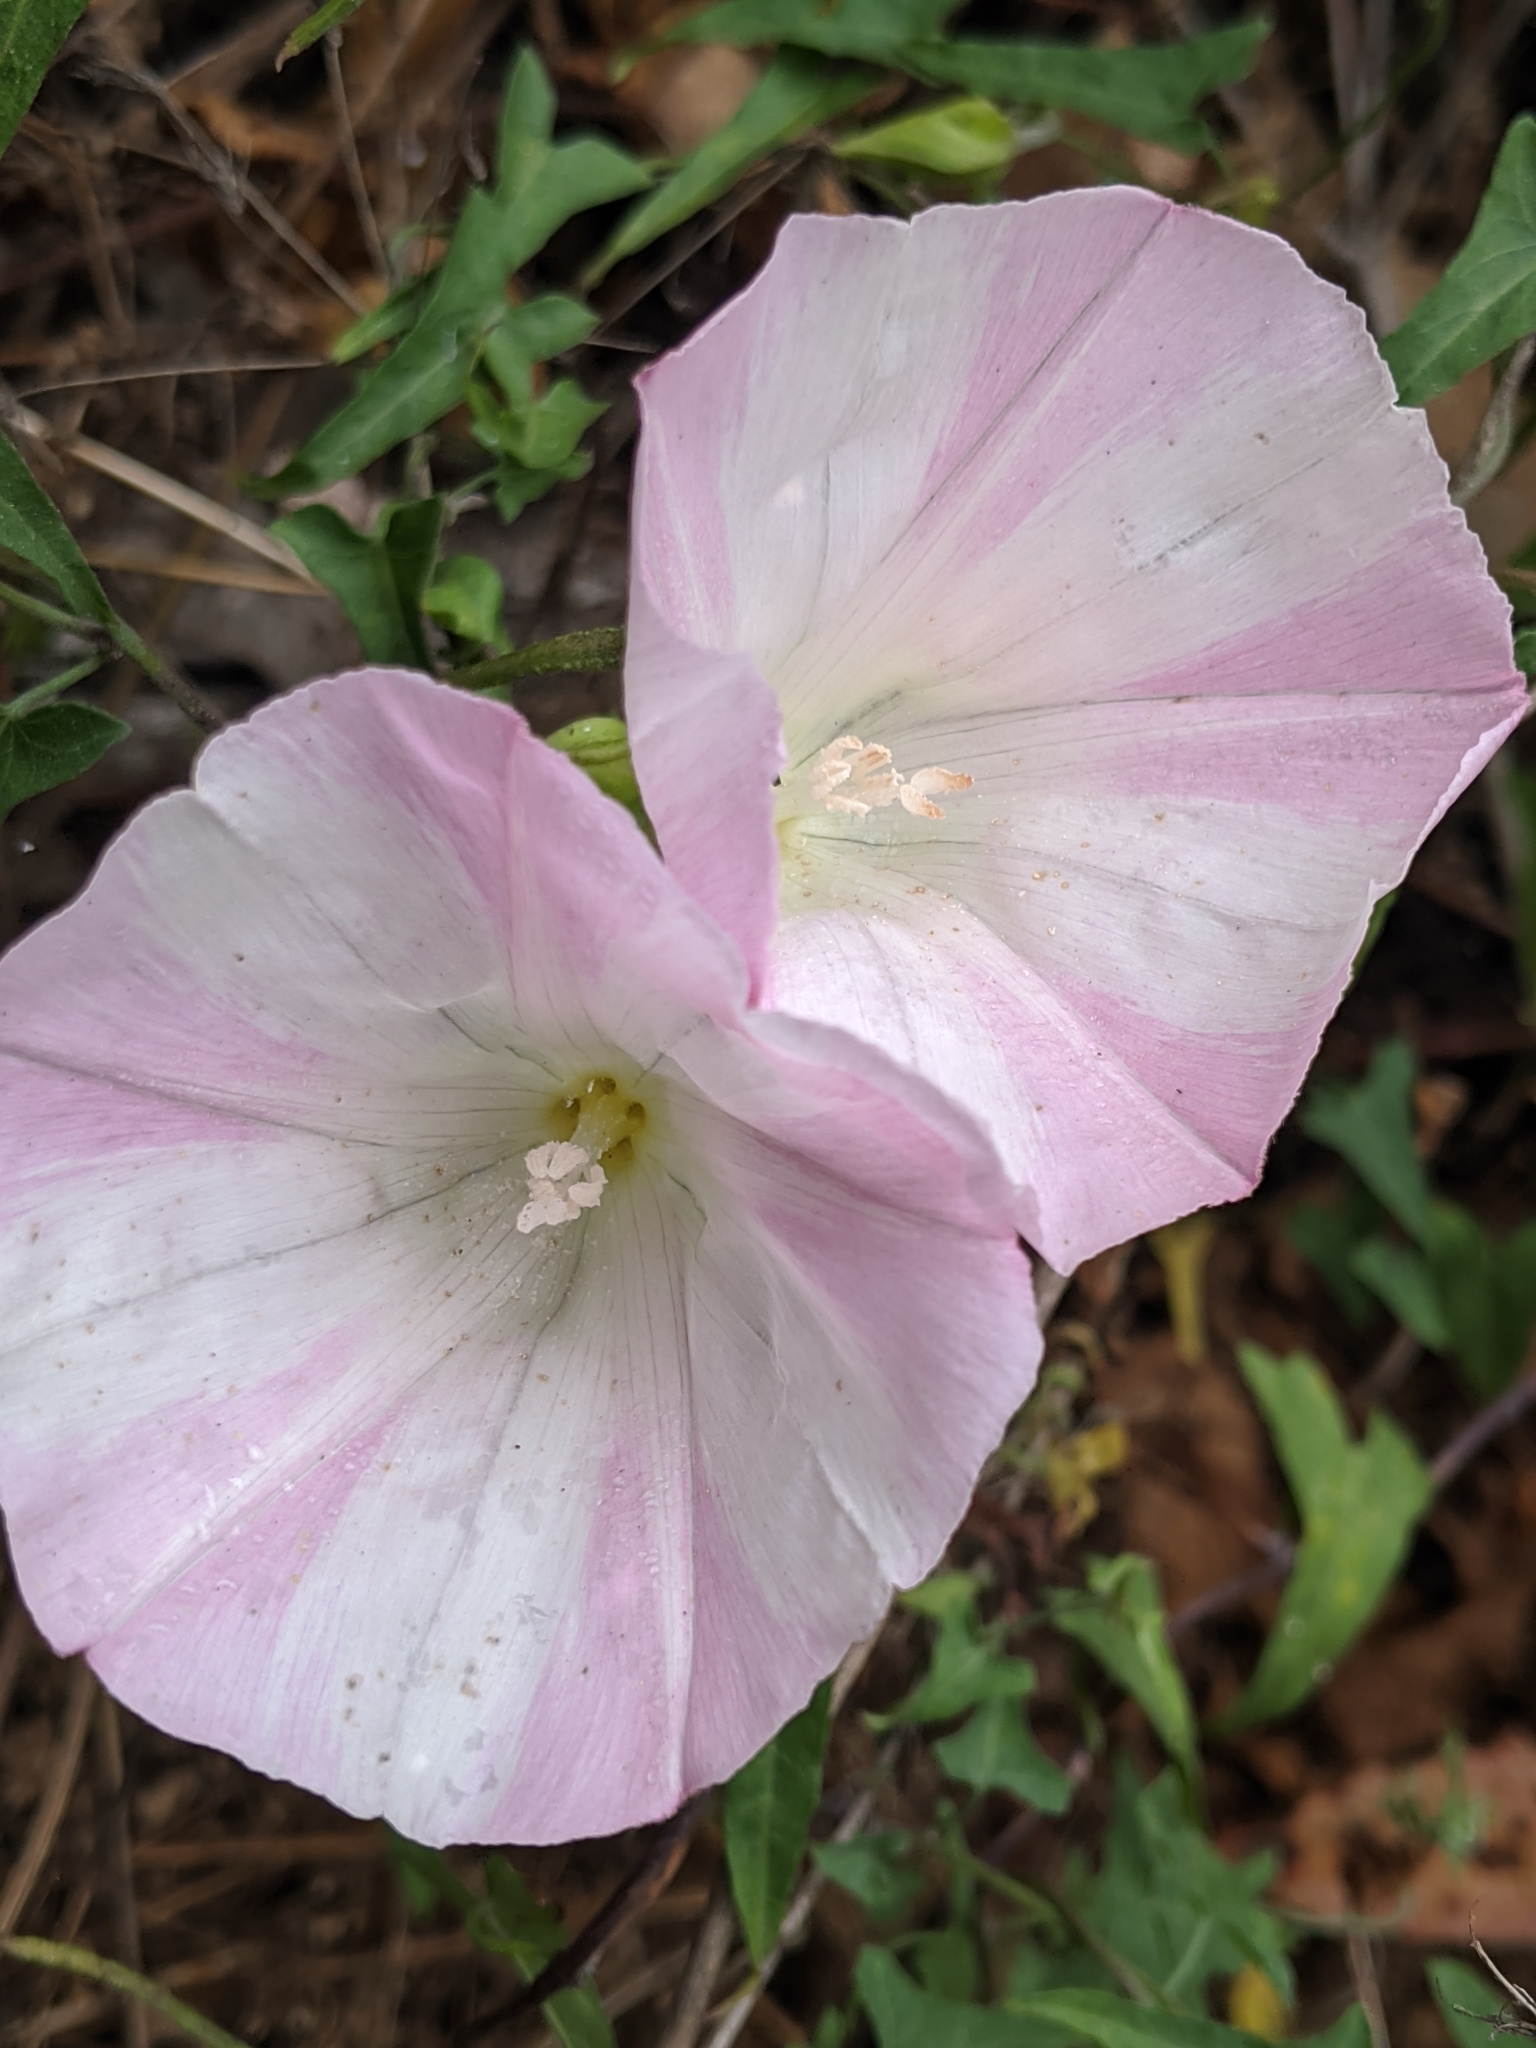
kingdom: Plantae
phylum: Tracheophyta
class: Magnoliopsida
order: Solanales
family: Convolvulaceae
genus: Calystegia
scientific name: Calystegia macrostegia
